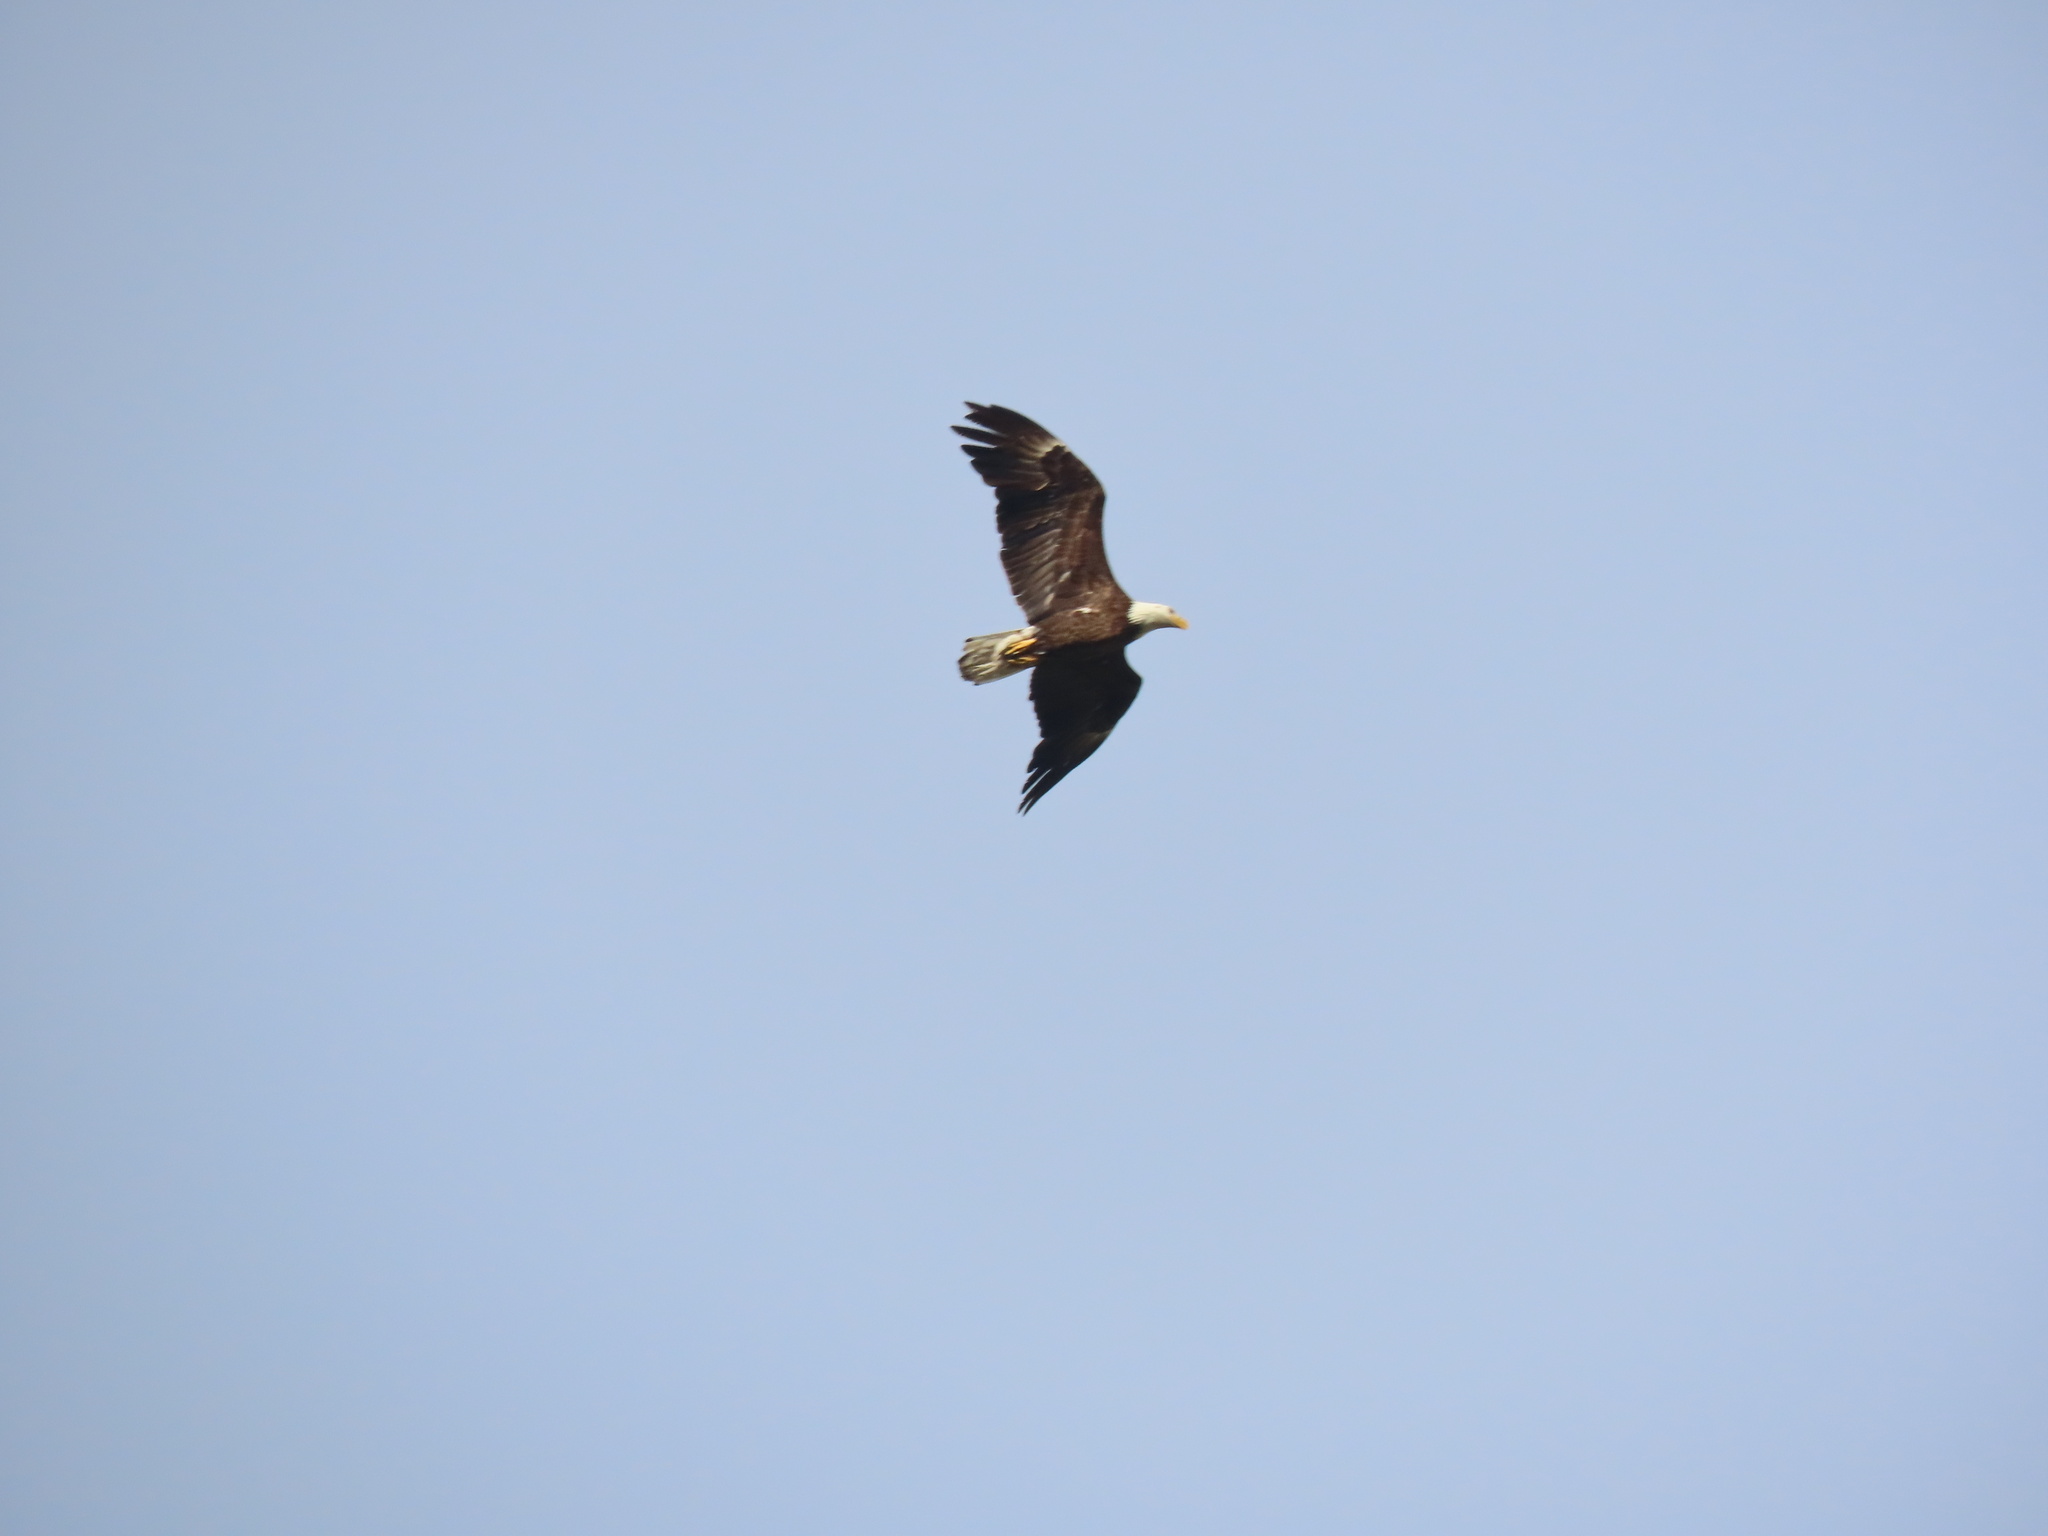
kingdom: Animalia
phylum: Chordata
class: Aves
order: Accipitriformes
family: Accipitridae
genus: Haliaeetus
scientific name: Haliaeetus leucocephalus
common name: Bald eagle
